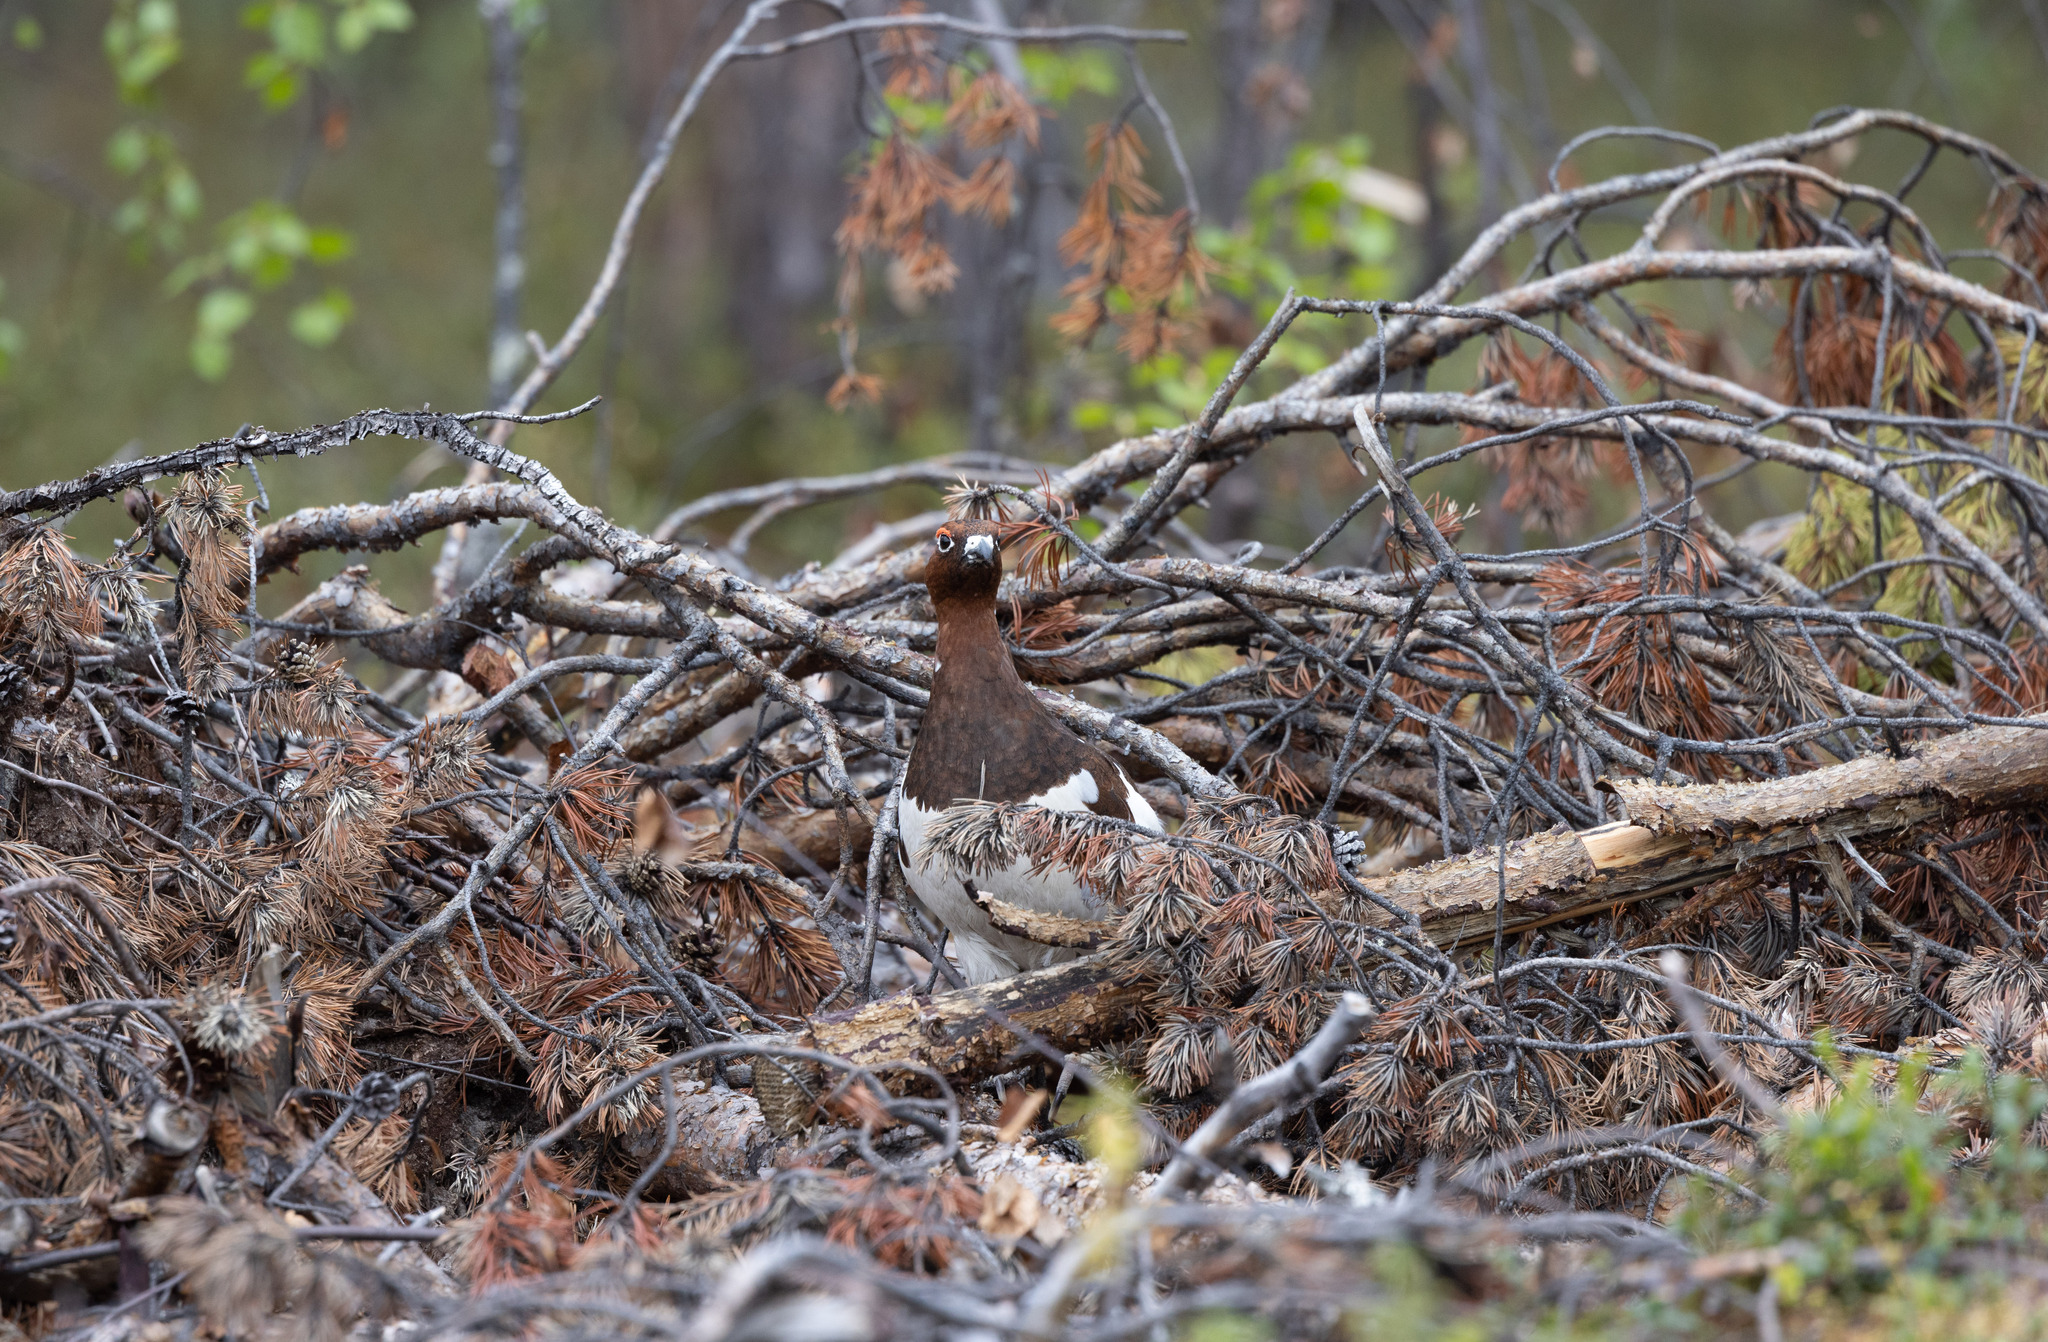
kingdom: Animalia
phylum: Chordata
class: Aves
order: Galliformes
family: Phasianidae
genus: Lagopus
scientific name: Lagopus lagopus
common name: Willow ptarmigan
